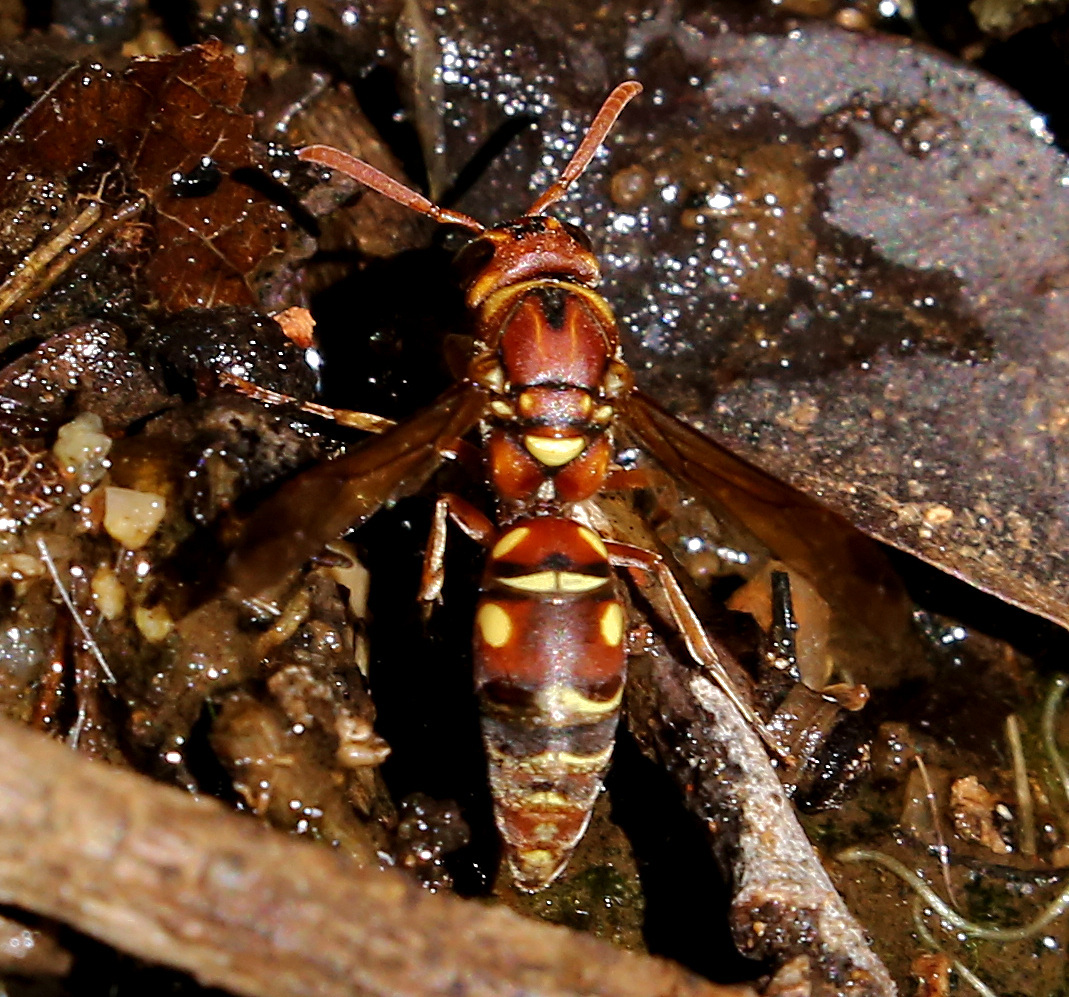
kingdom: Animalia
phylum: Arthropoda
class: Insecta
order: Hymenoptera
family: Eumenidae
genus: Antodynerus
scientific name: Antodynerus
